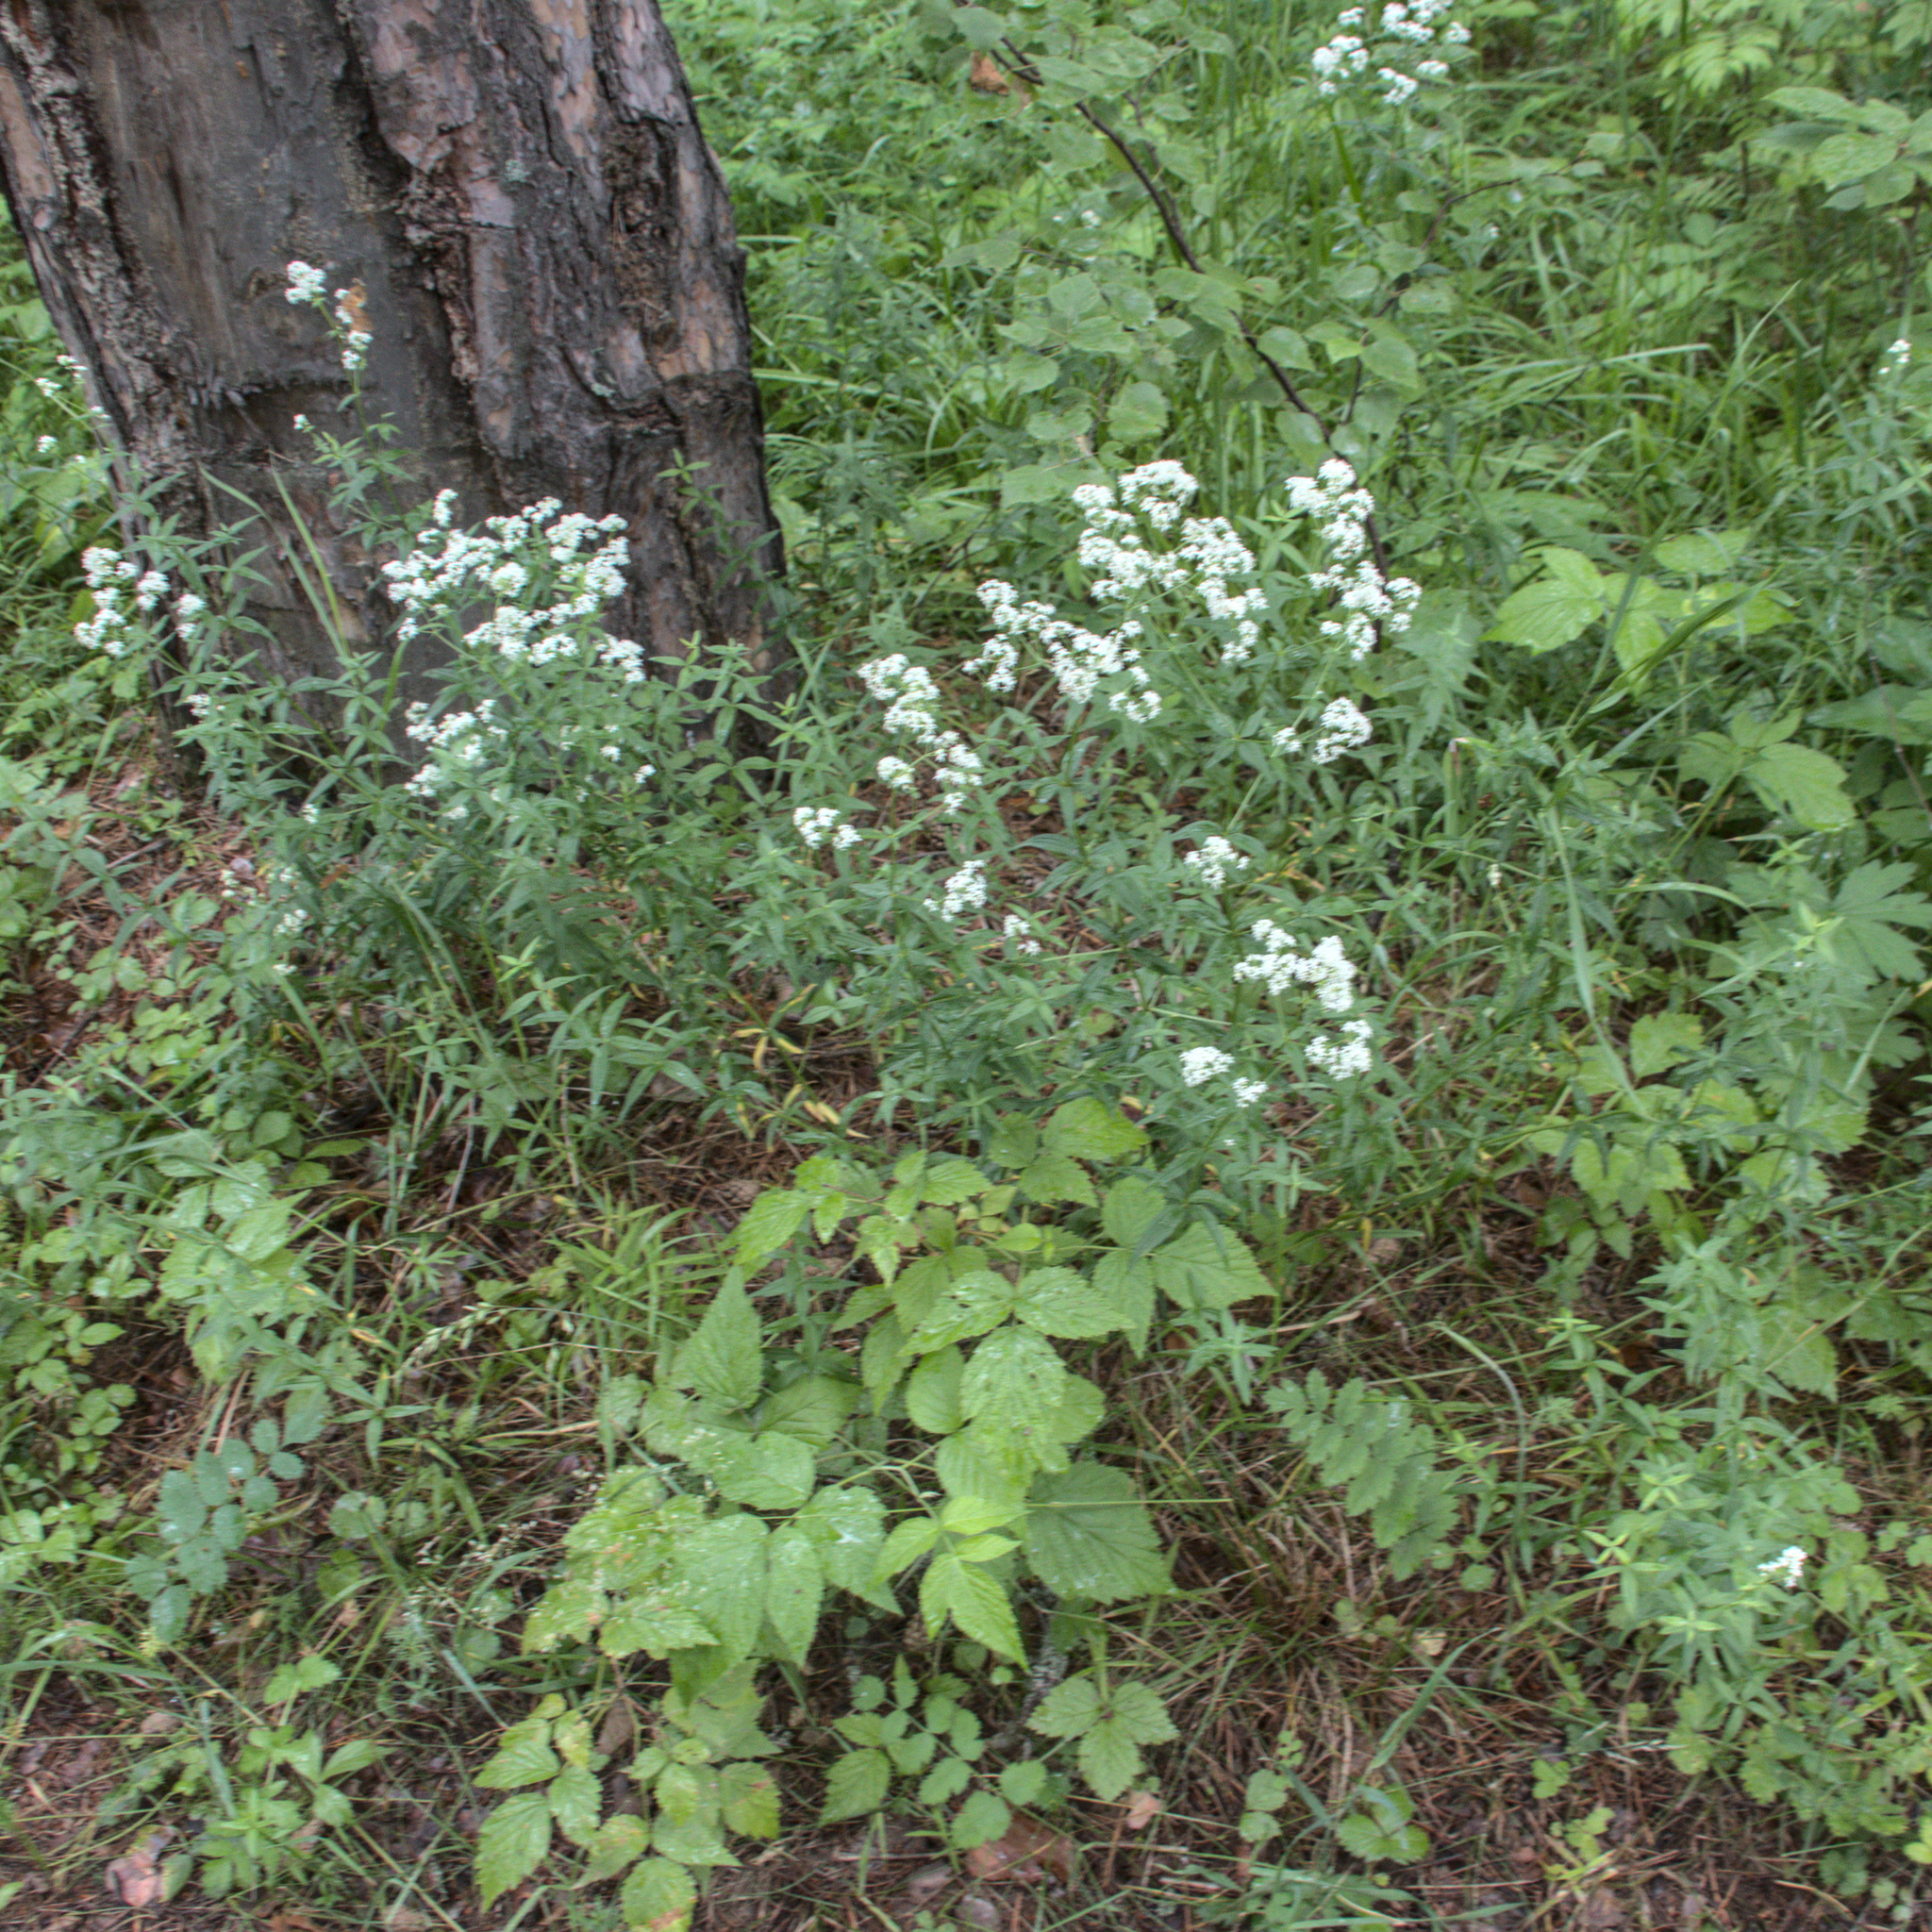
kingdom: Plantae
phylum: Tracheophyta
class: Magnoliopsida
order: Gentianales
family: Rubiaceae
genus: Galium
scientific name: Galium boreale
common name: Northern bedstraw
